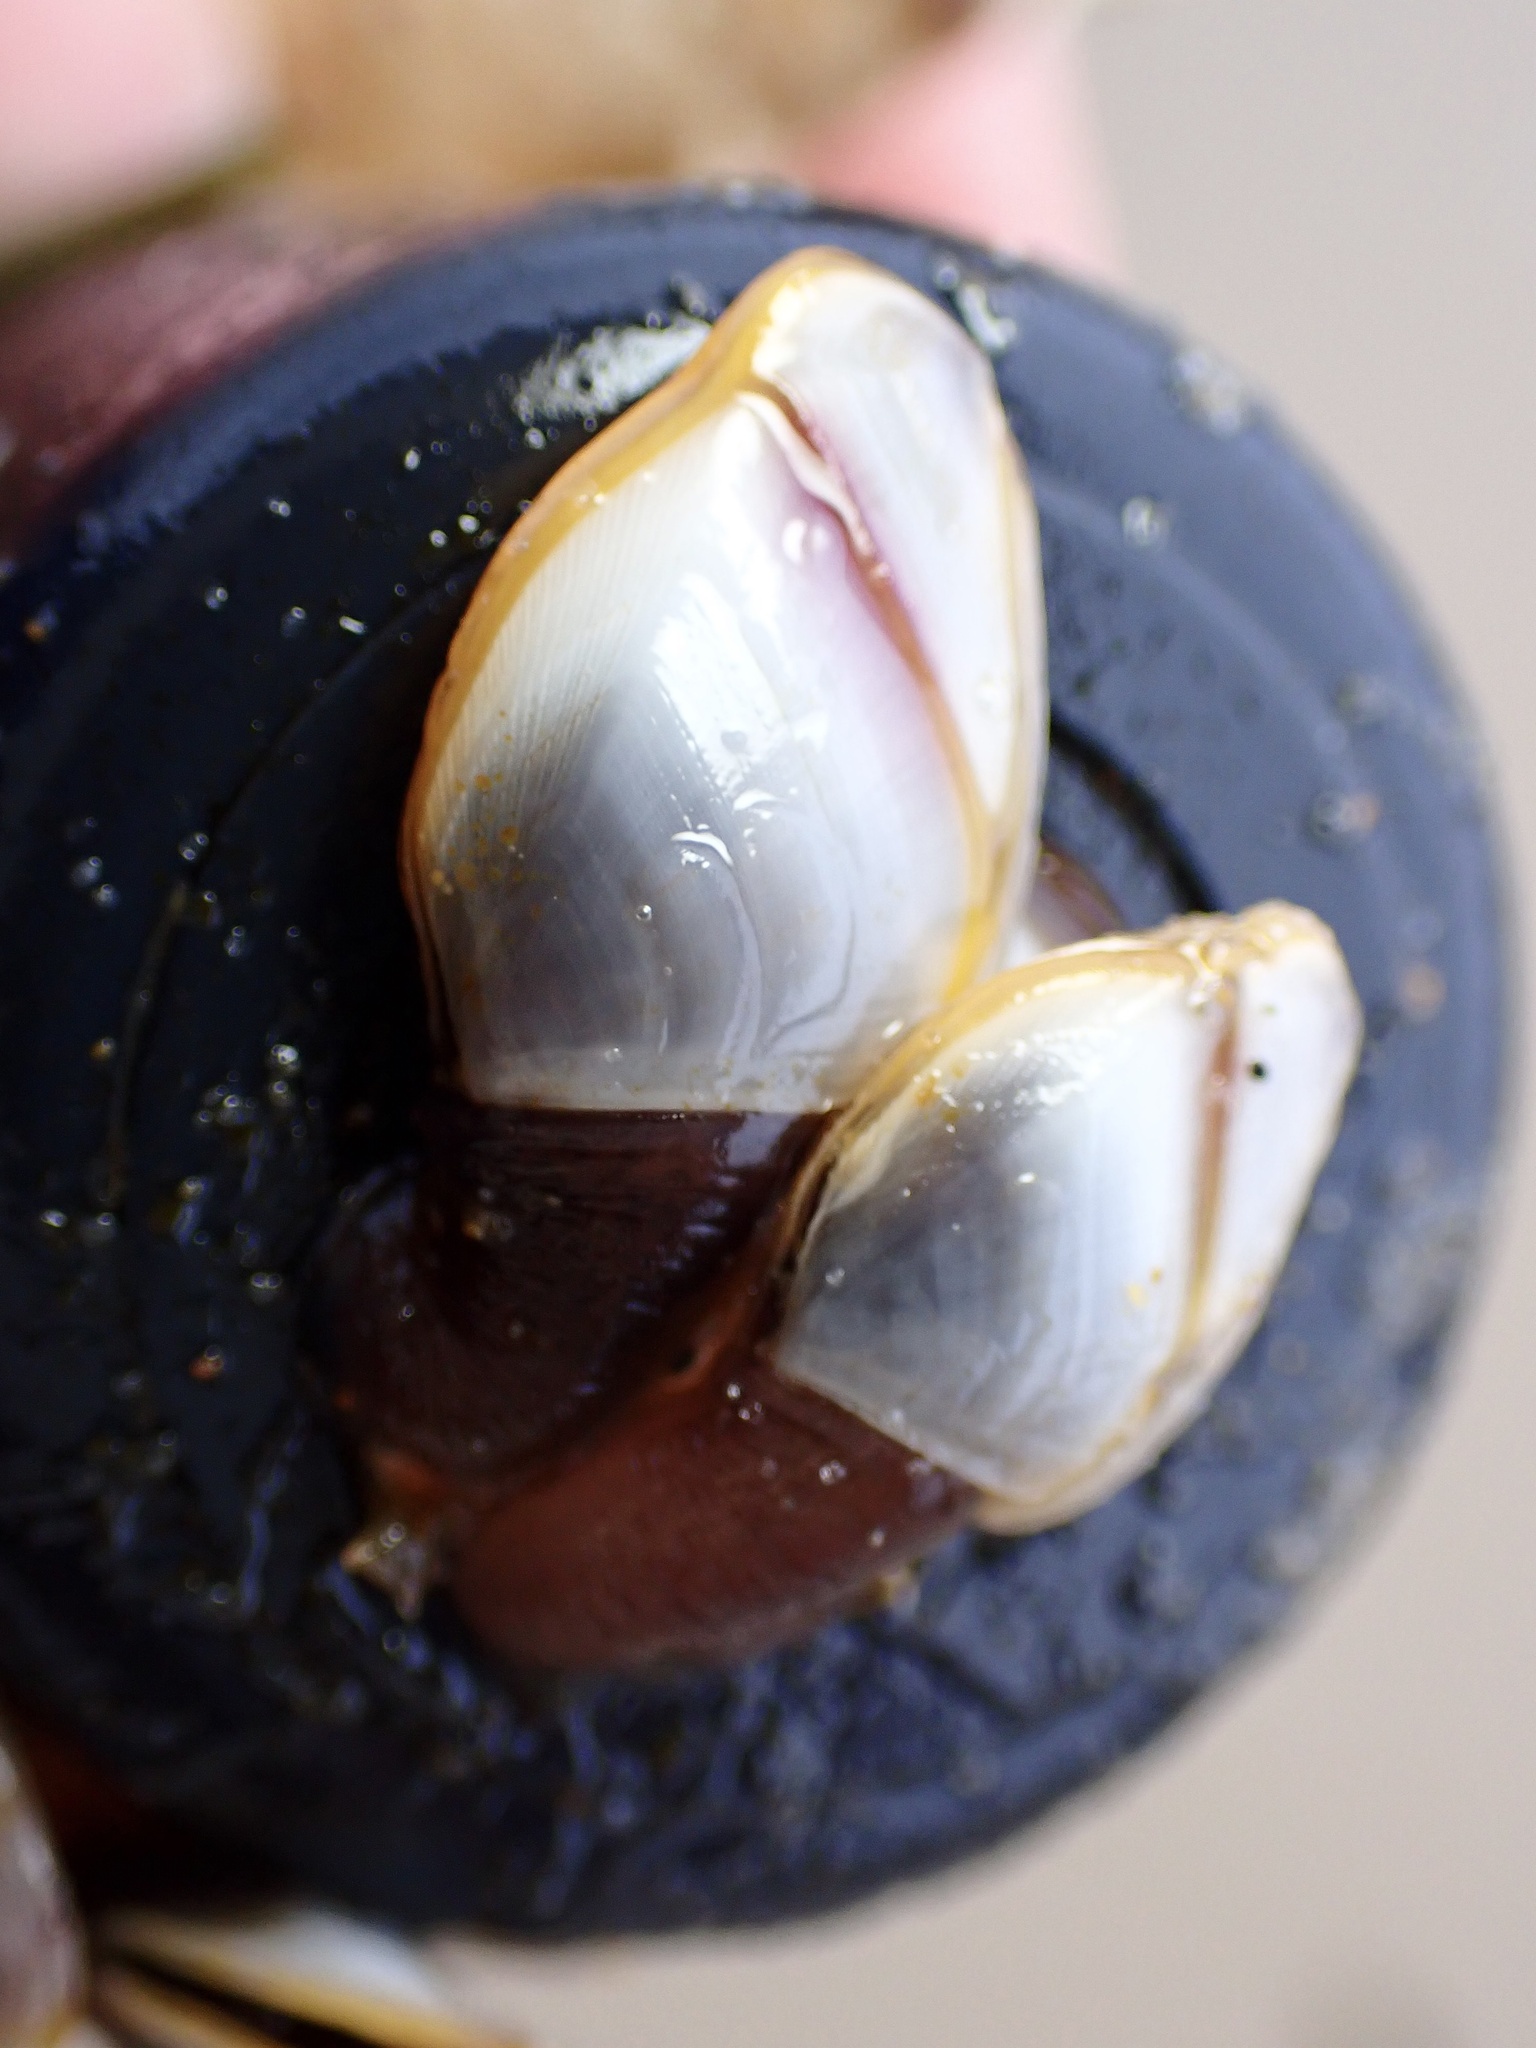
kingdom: Animalia
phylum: Arthropoda
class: Maxillopoda
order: Pedunculata
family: Lepadidae
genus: Lepas
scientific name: Lepas anatifera
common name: Common goose barnacle
